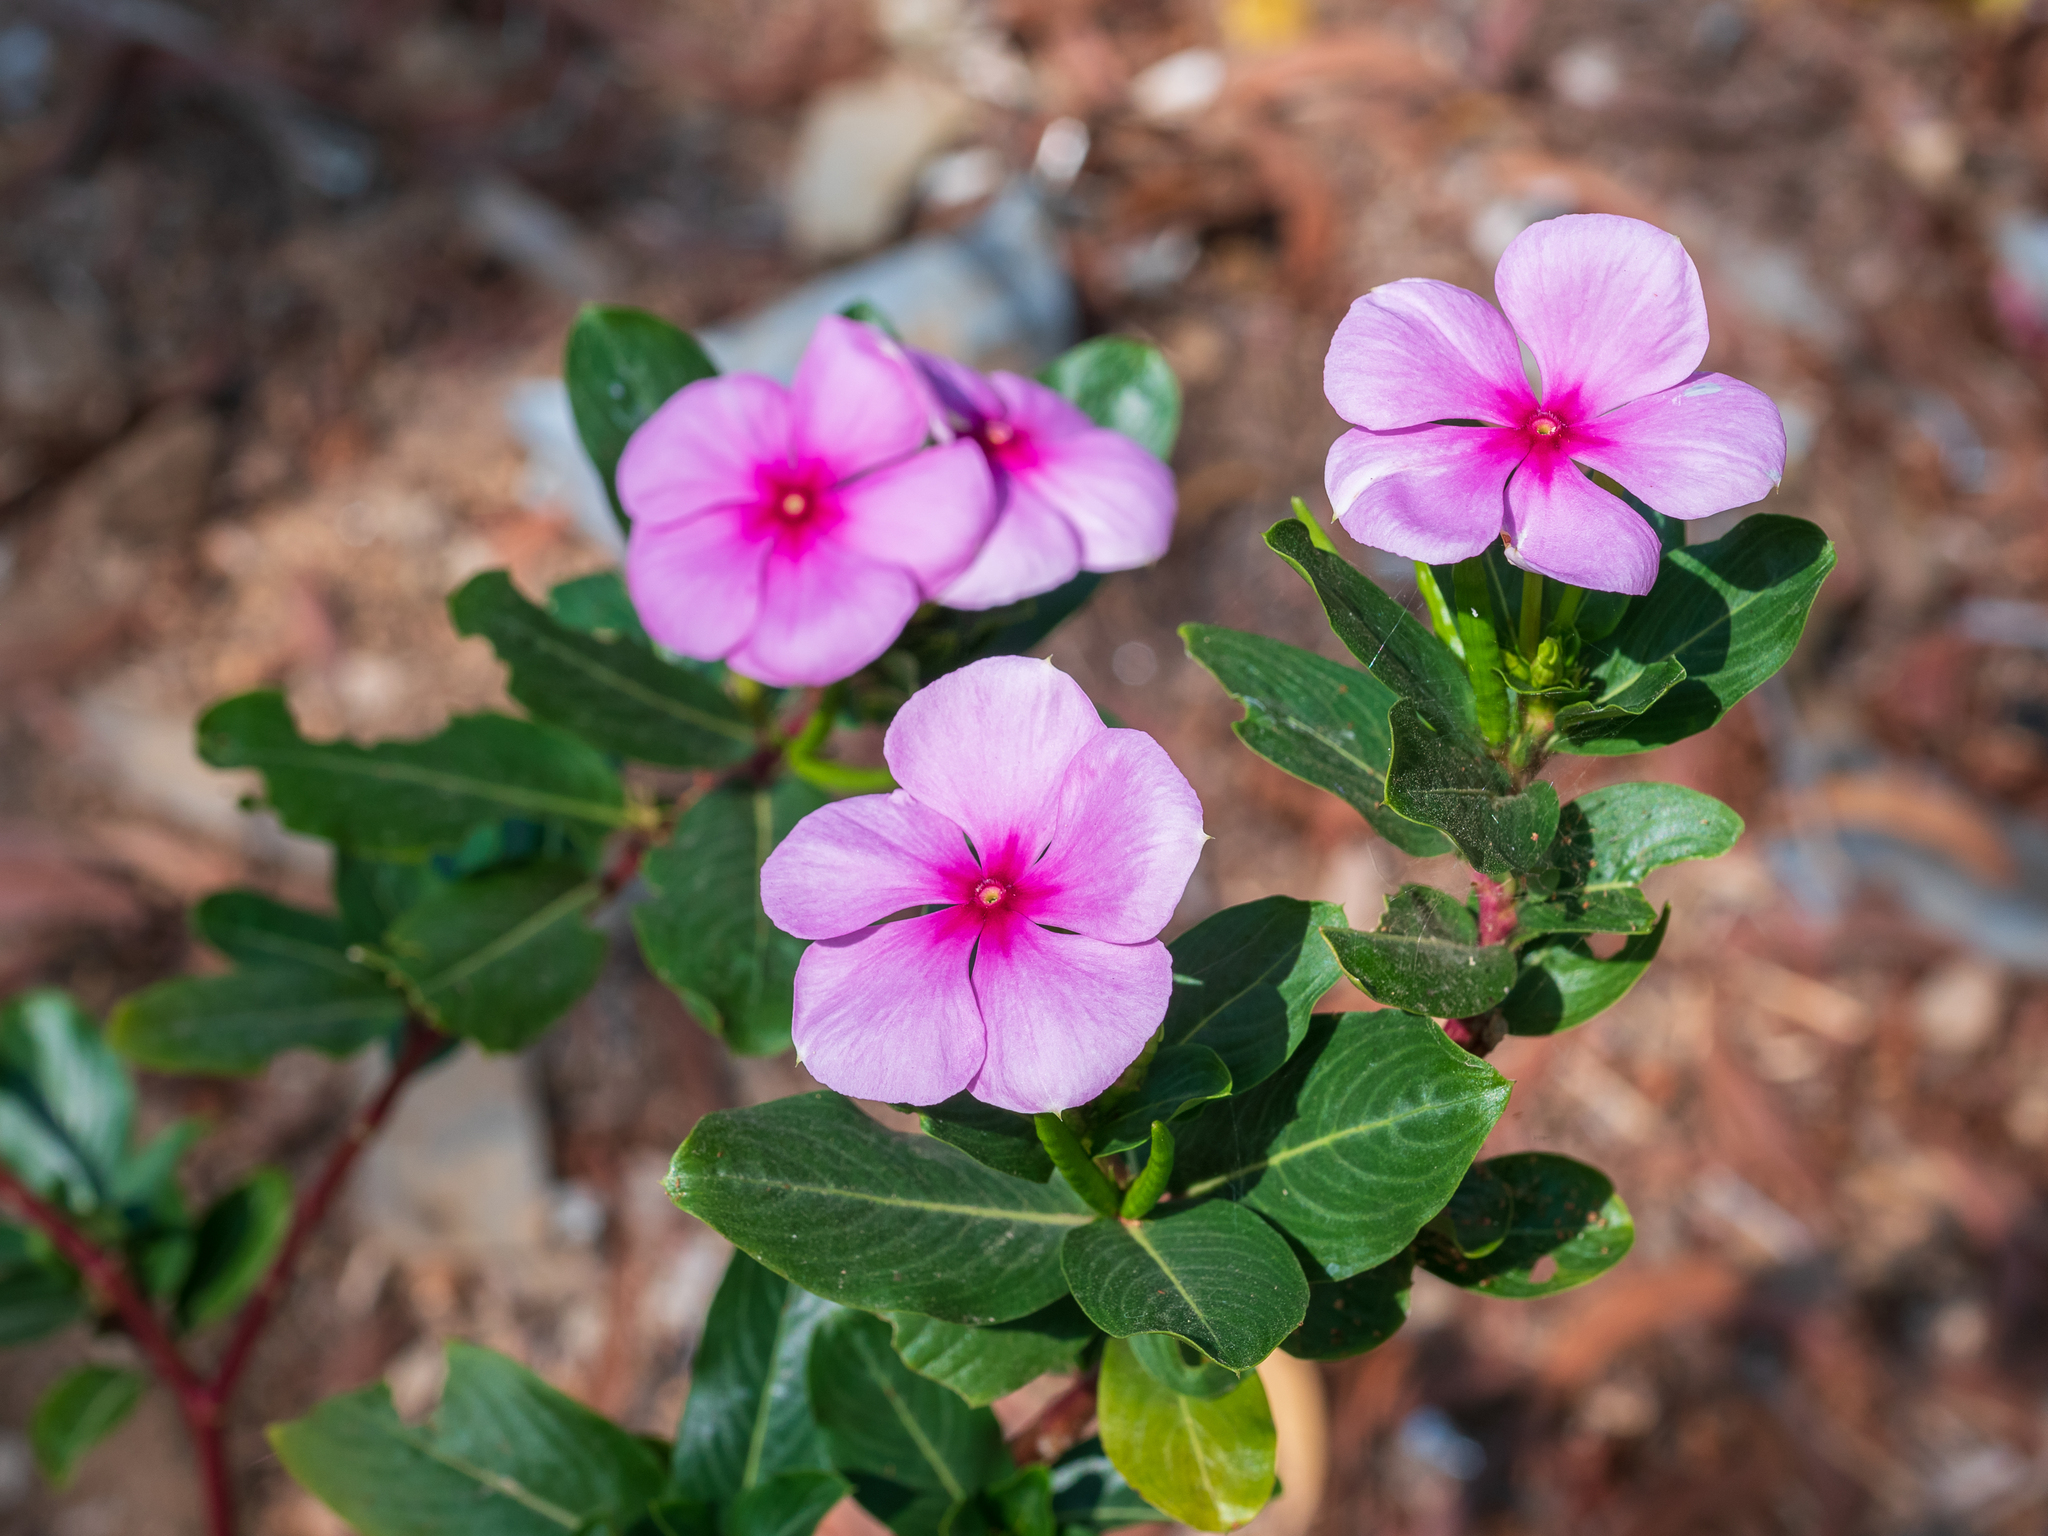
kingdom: Plantae
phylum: Tracheophyta
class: Magnoliopsida
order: Gentianales
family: Apocynaceae
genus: Catharanthus
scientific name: Catharanthus roseus
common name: Madagascar periwinkle
